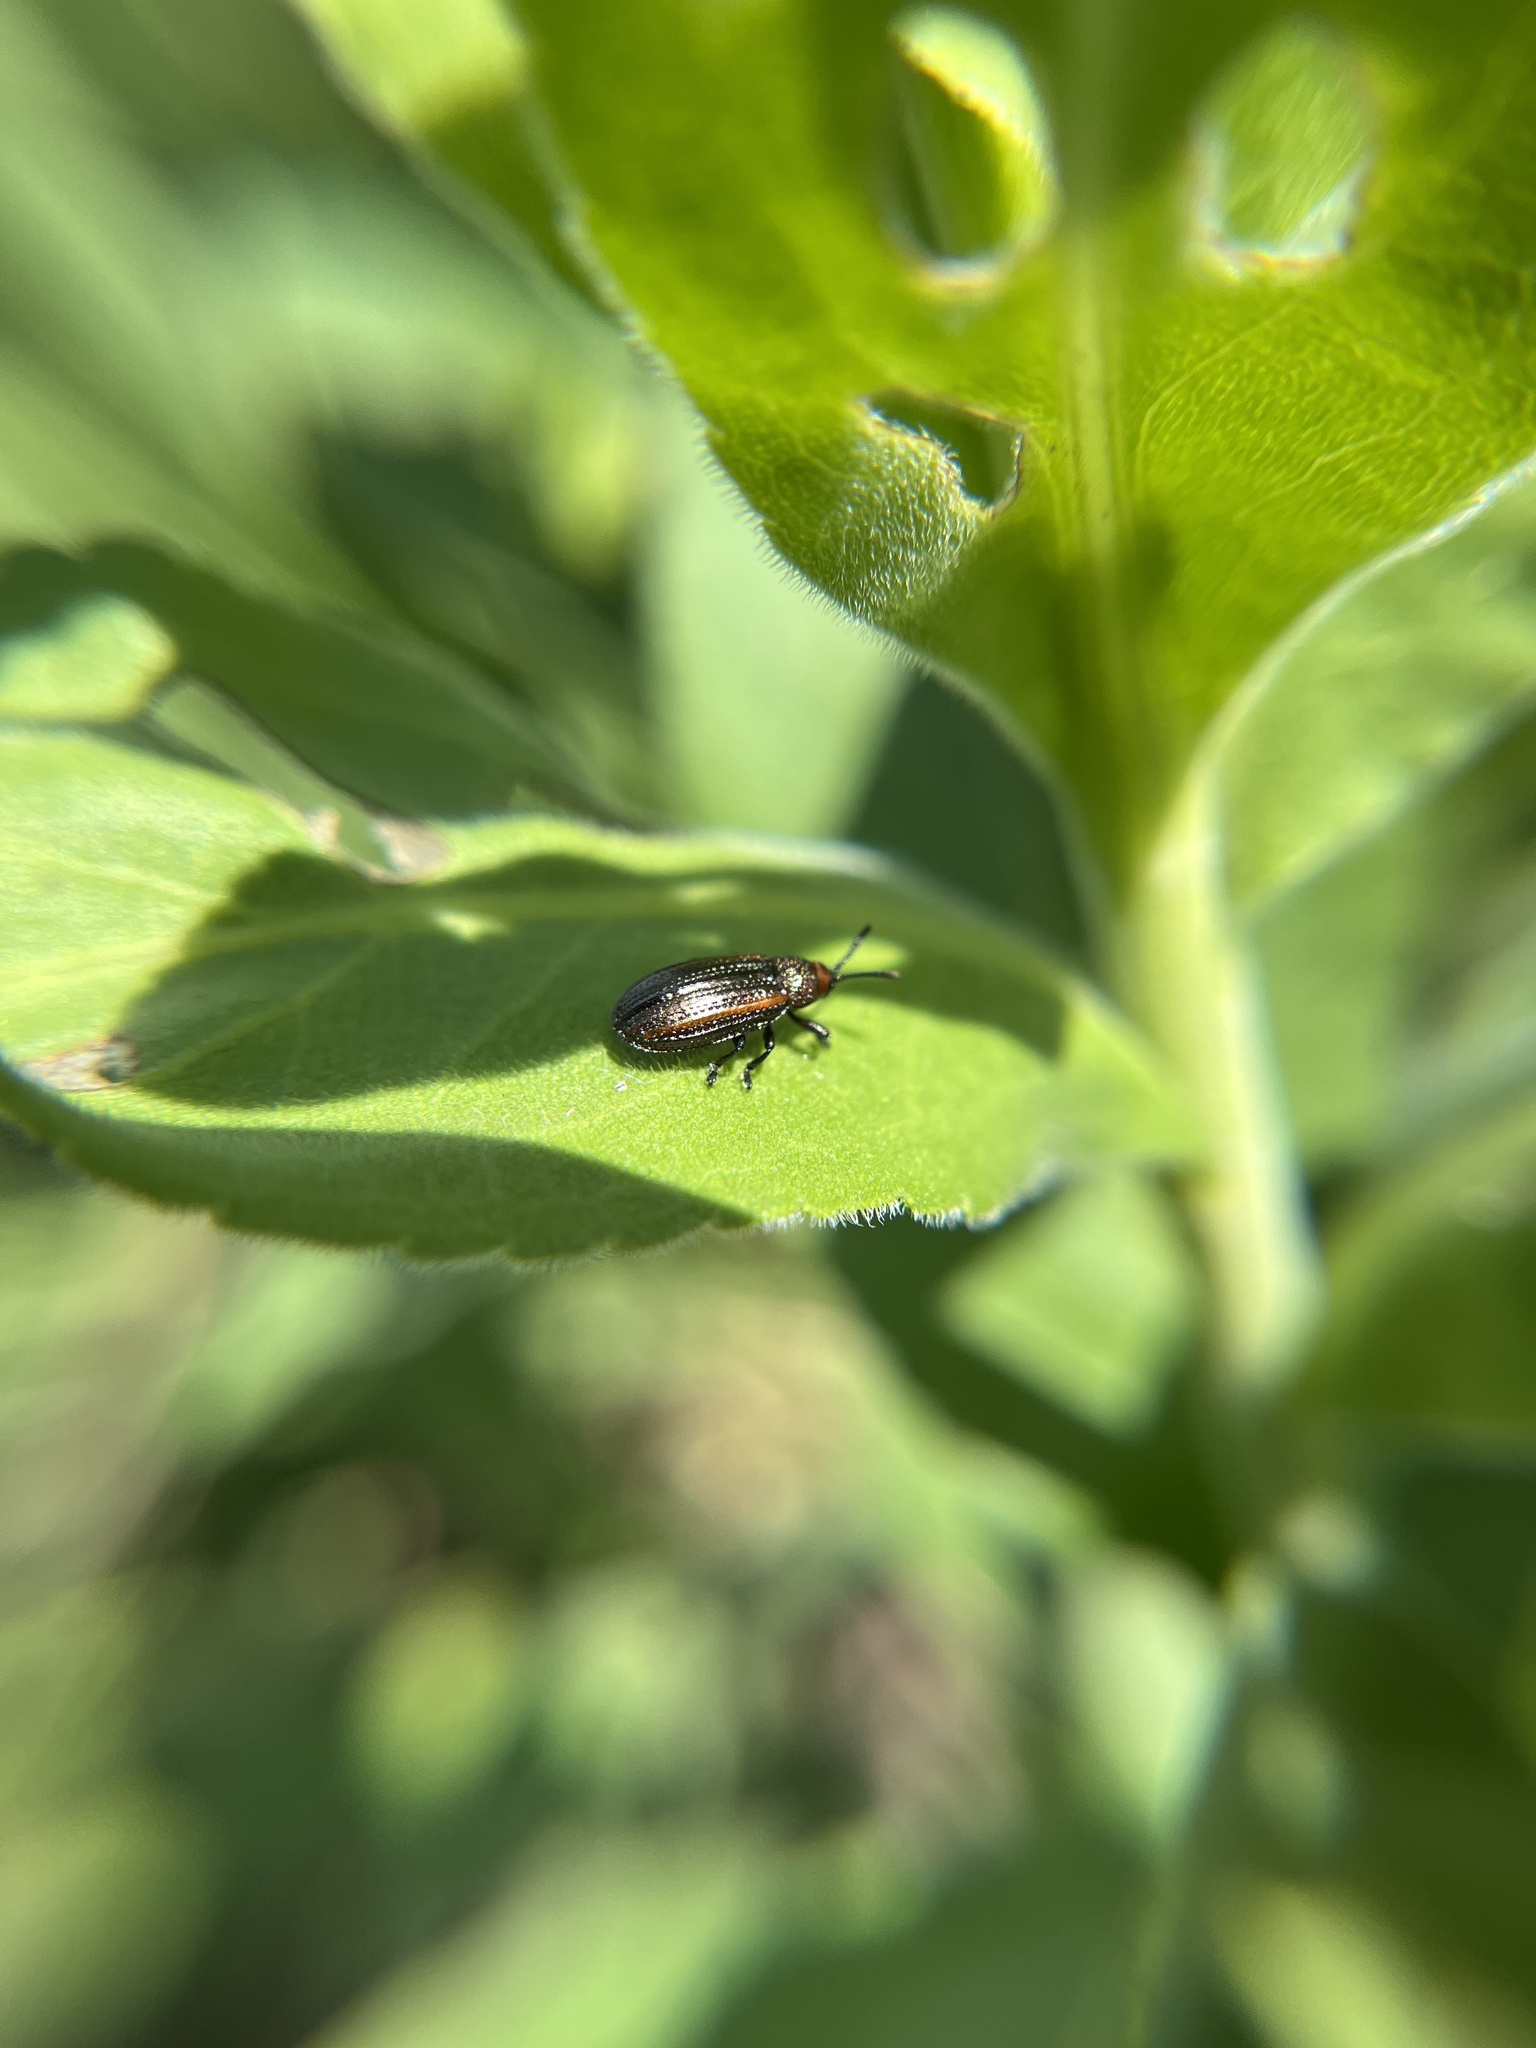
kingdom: Animalia
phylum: Arthropoda
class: Insecta
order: Coleoptera
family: Chrysomelidae
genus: Microrhopala
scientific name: Microrhopala vittata
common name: Goldenrod leaf miner beetle
